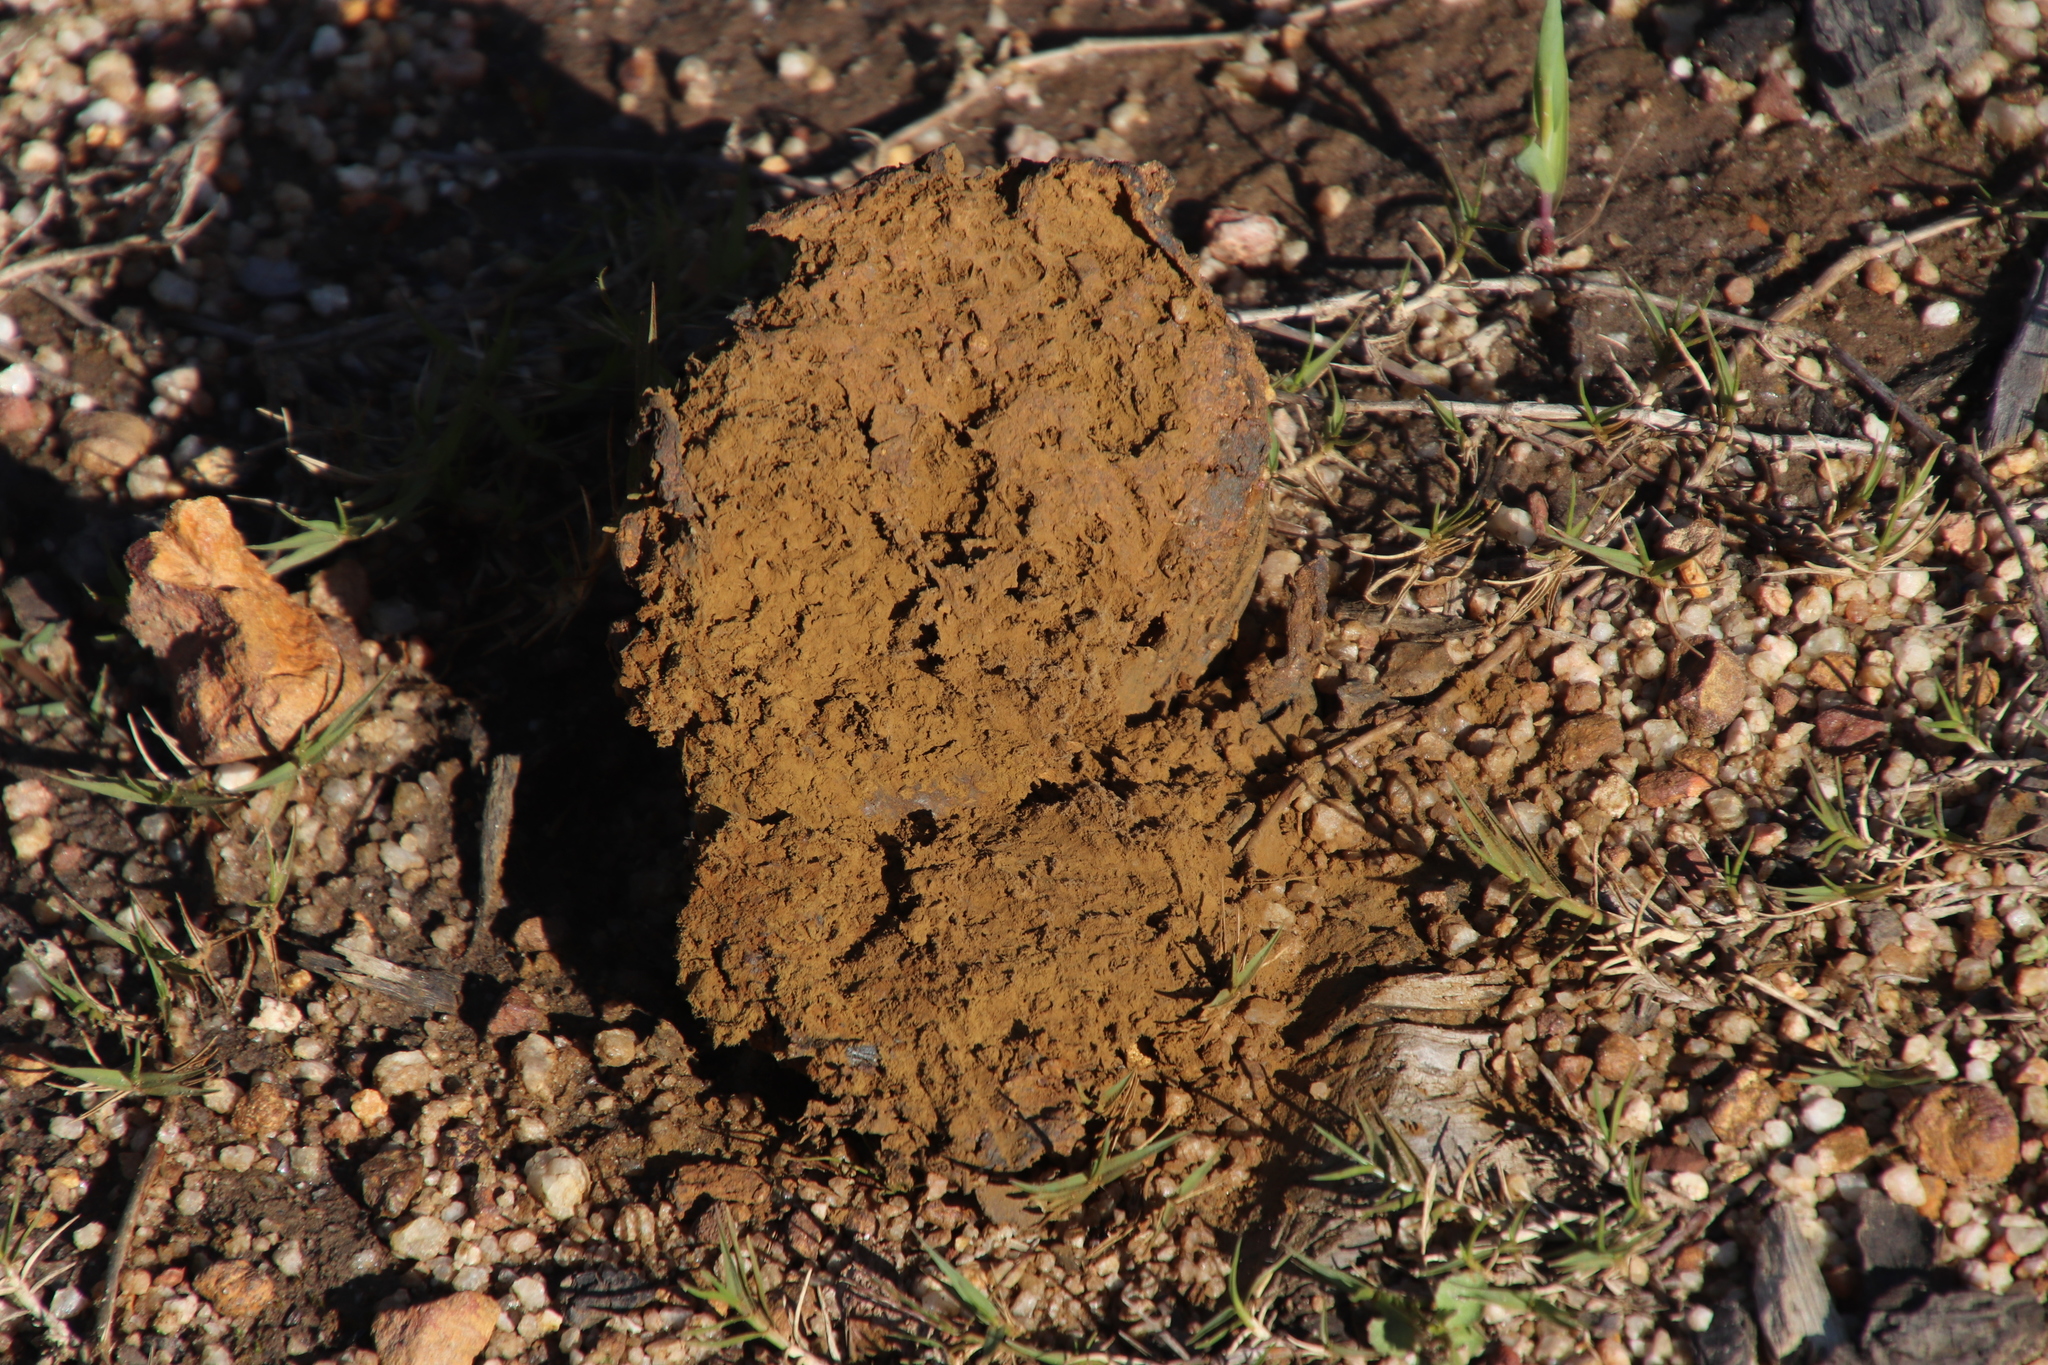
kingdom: Fungi
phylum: Basidiomycota
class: Agaricomycetes
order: Boletales
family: Sclerodermataceae
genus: Pisolithus
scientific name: Pisolithus arhizus
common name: Dyeball
